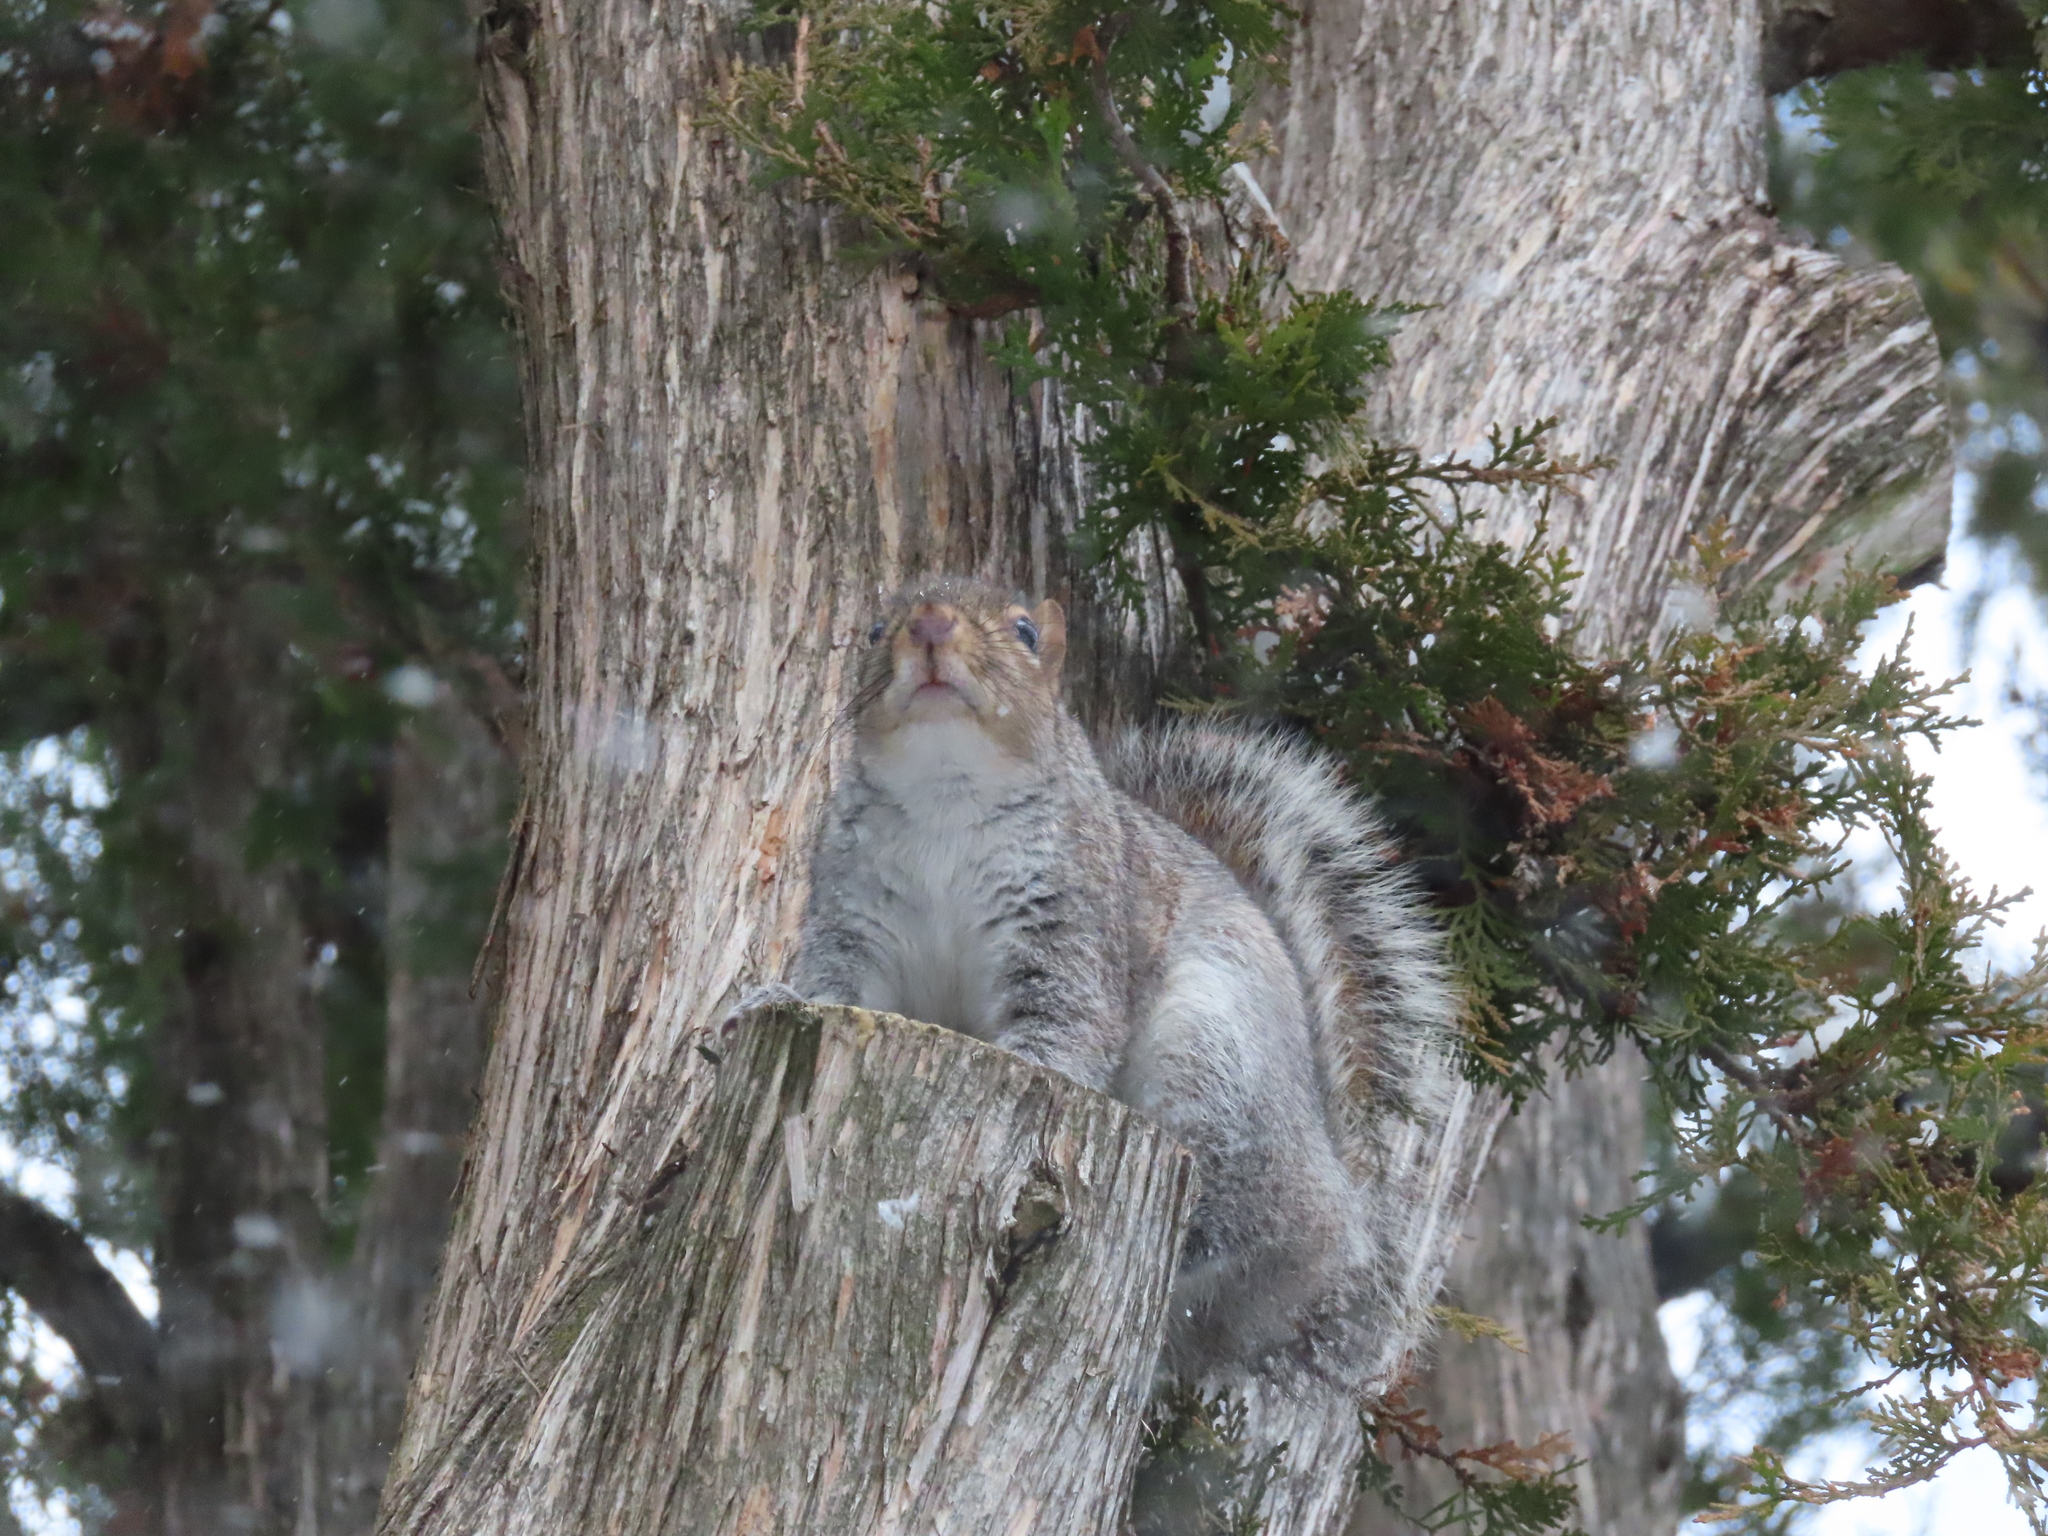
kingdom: Animalia
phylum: Chordata
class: Mammalia
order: Rodentia
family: Sciuridae
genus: Sciurus
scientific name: Sciurus carolinensis
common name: Eastern gray squirrel
